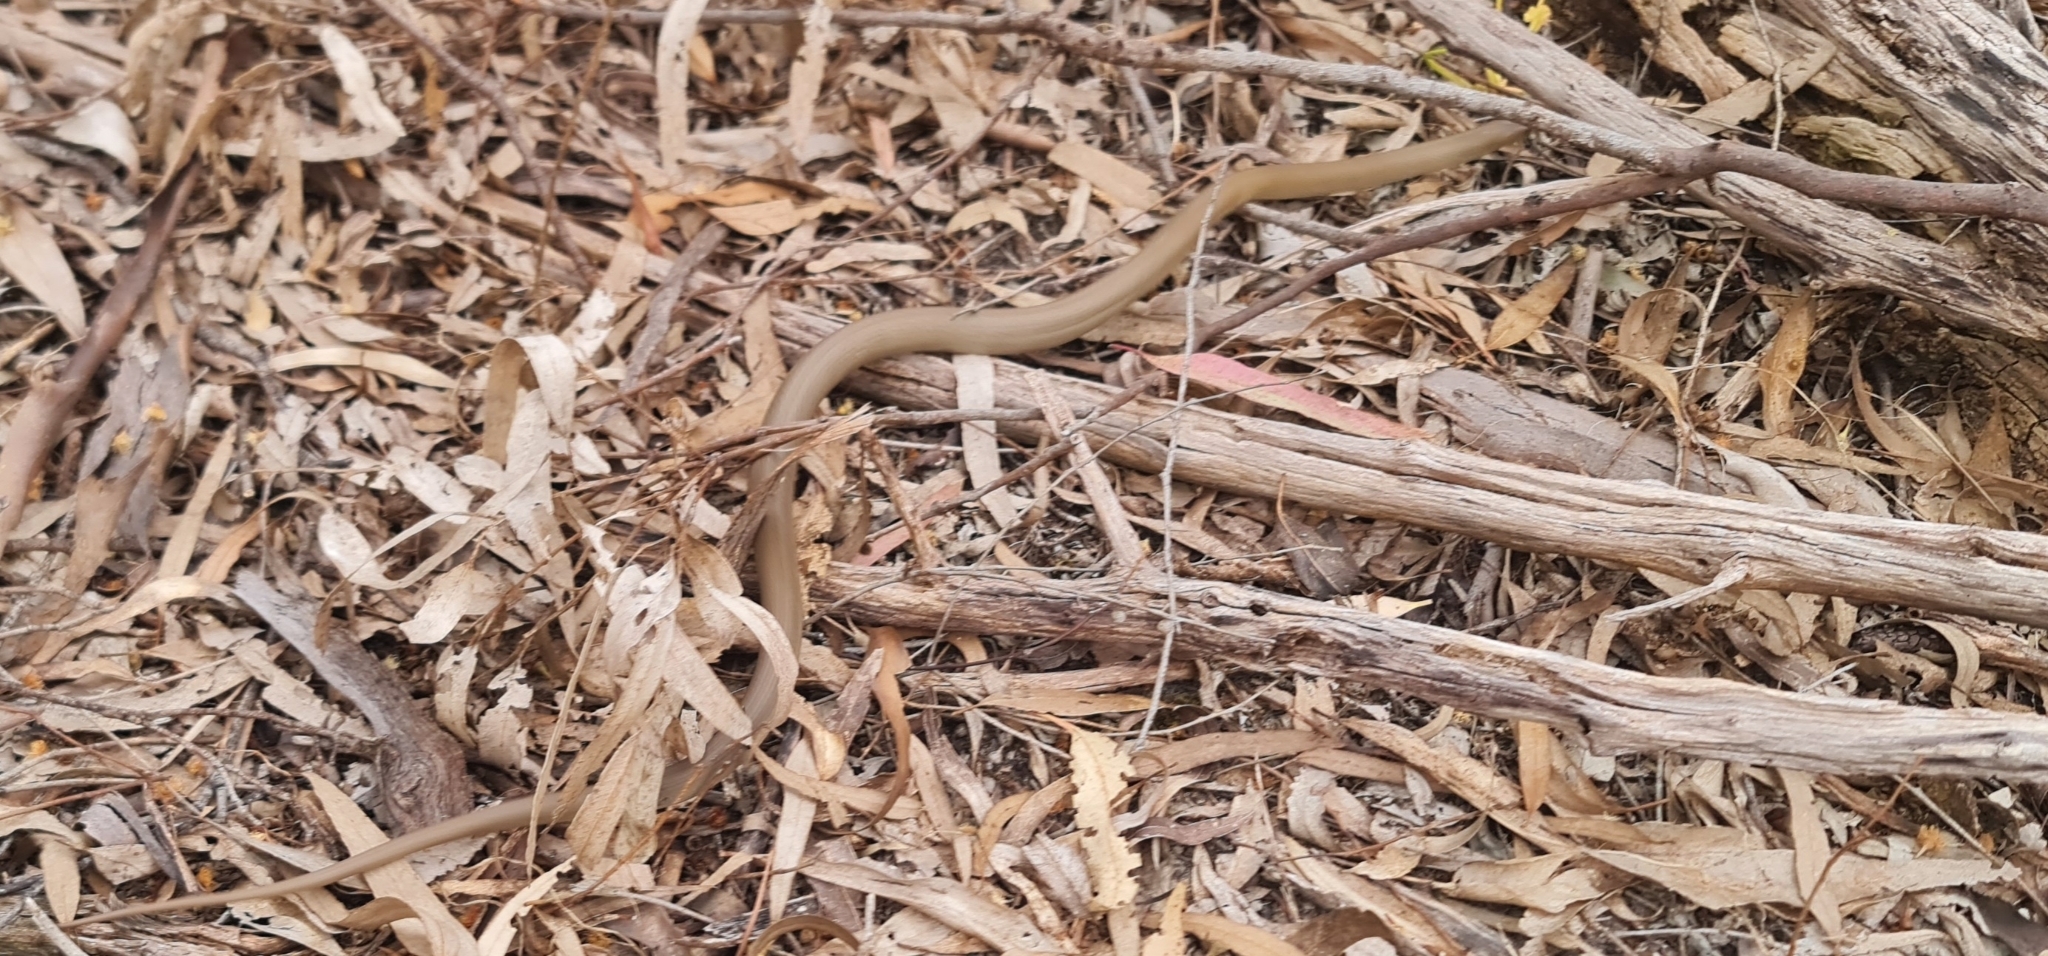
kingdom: Animalia
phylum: Chordata
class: Squamata
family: Elapidae
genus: Pseudonaja
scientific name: Pseudonaja textilis
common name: Eastern brown snake
